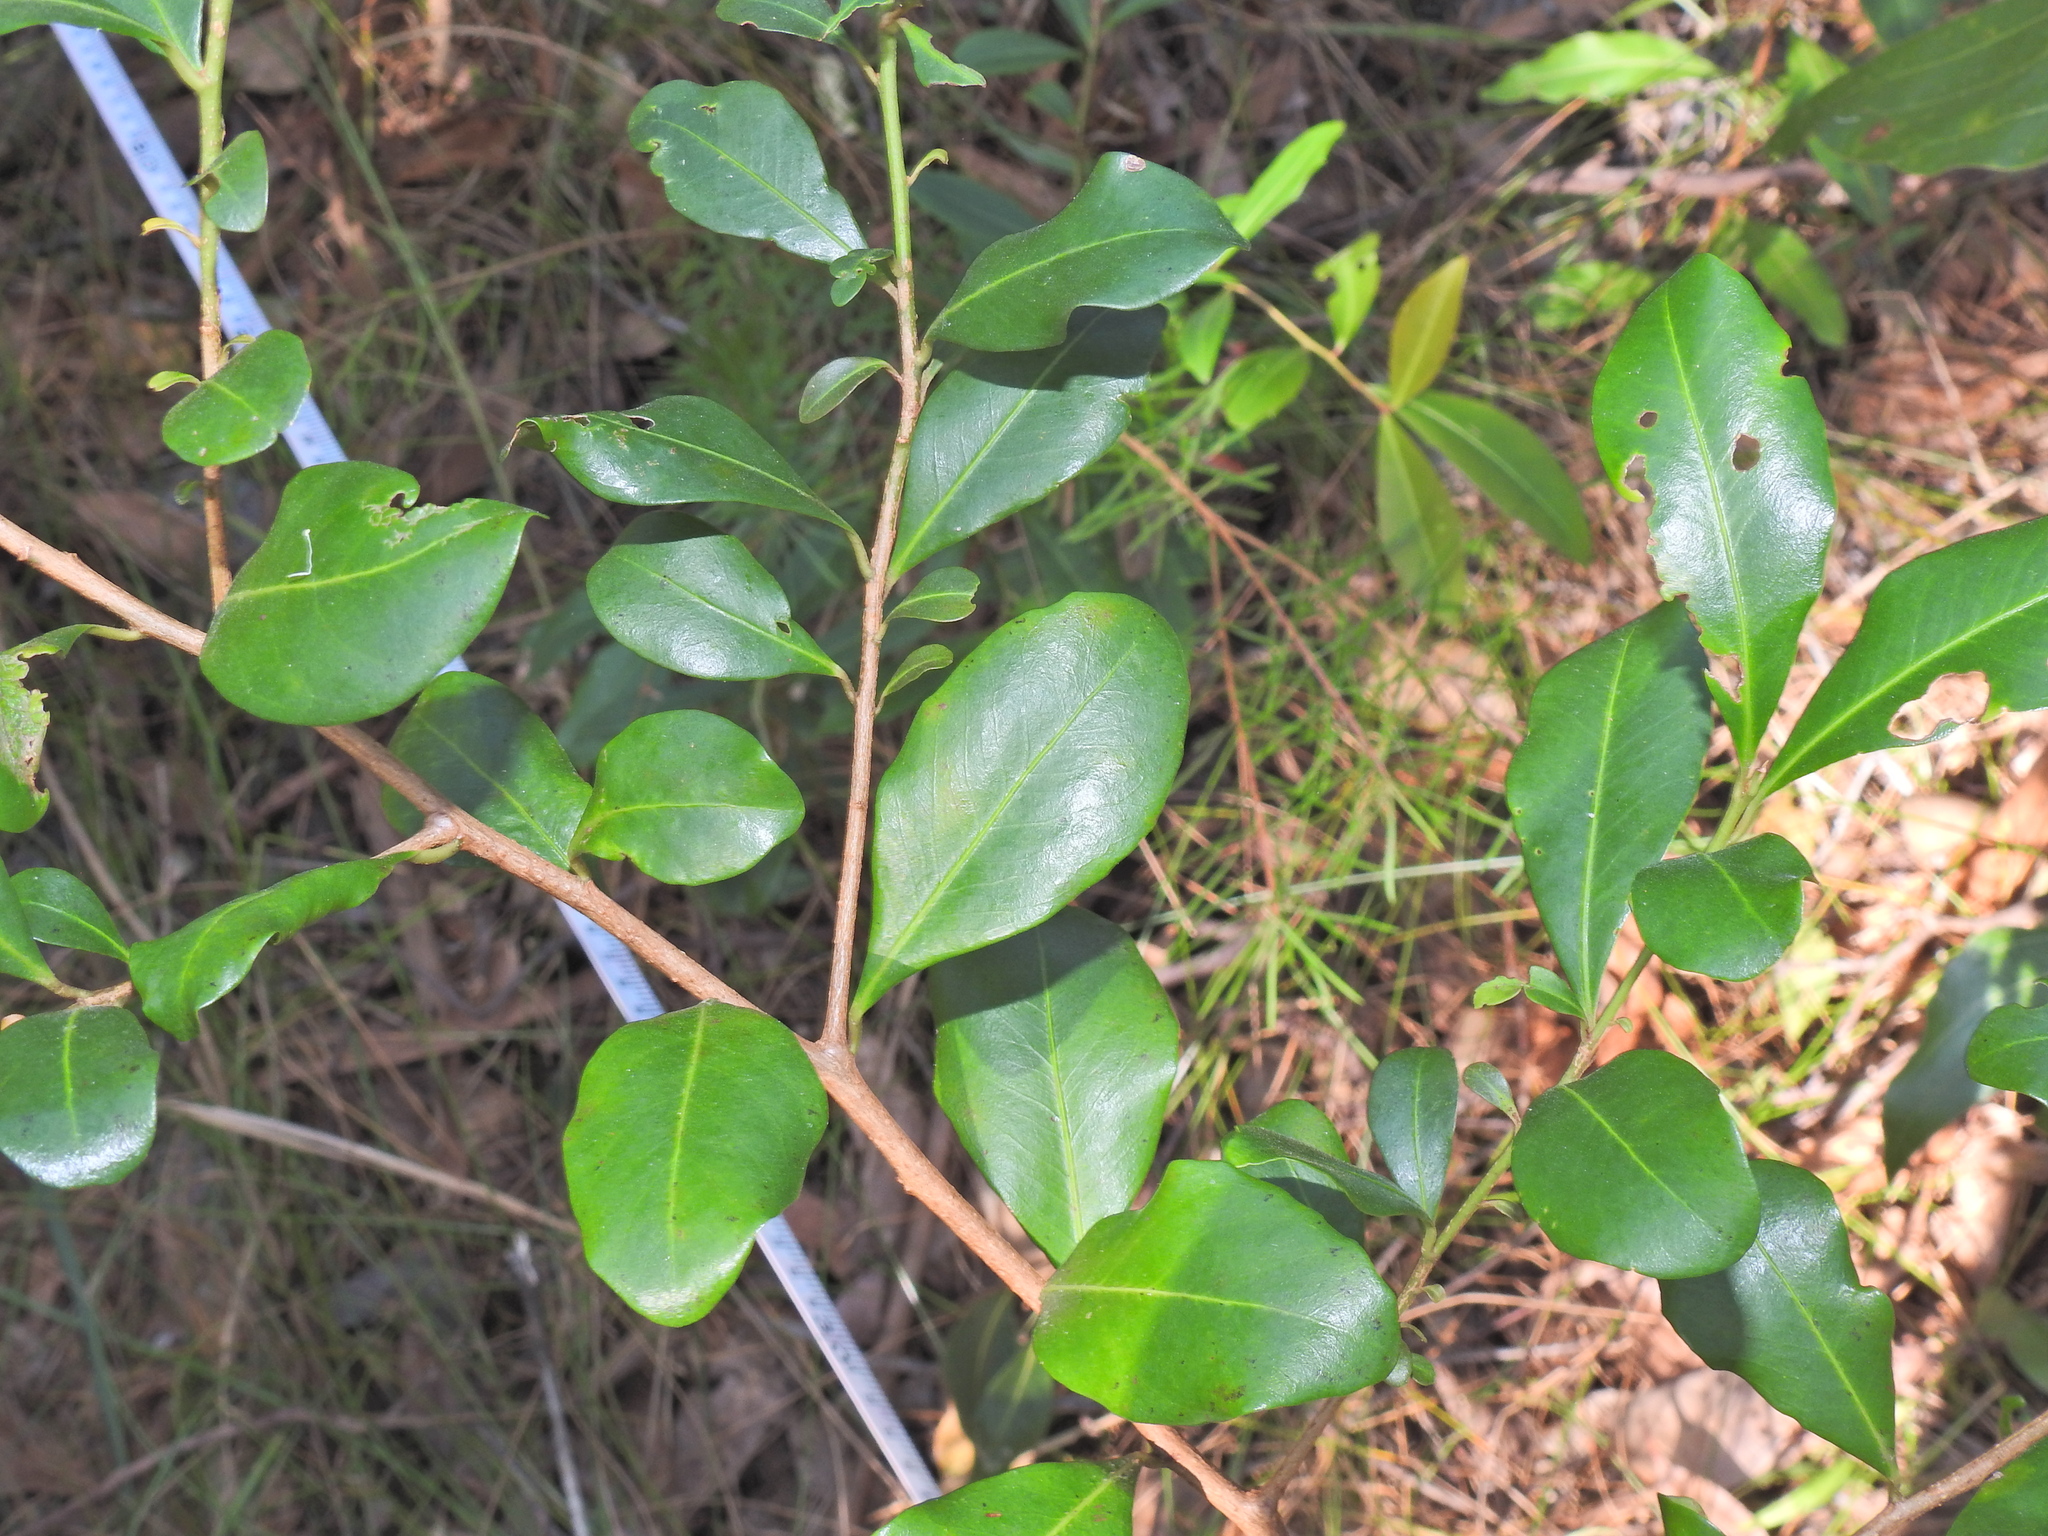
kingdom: Plantae
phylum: Tracheophyta
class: Magnoliopsida
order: Ericales
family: Primulaceae
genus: Myrsine
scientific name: Myrsine variabilis
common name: Brush muttonwood
